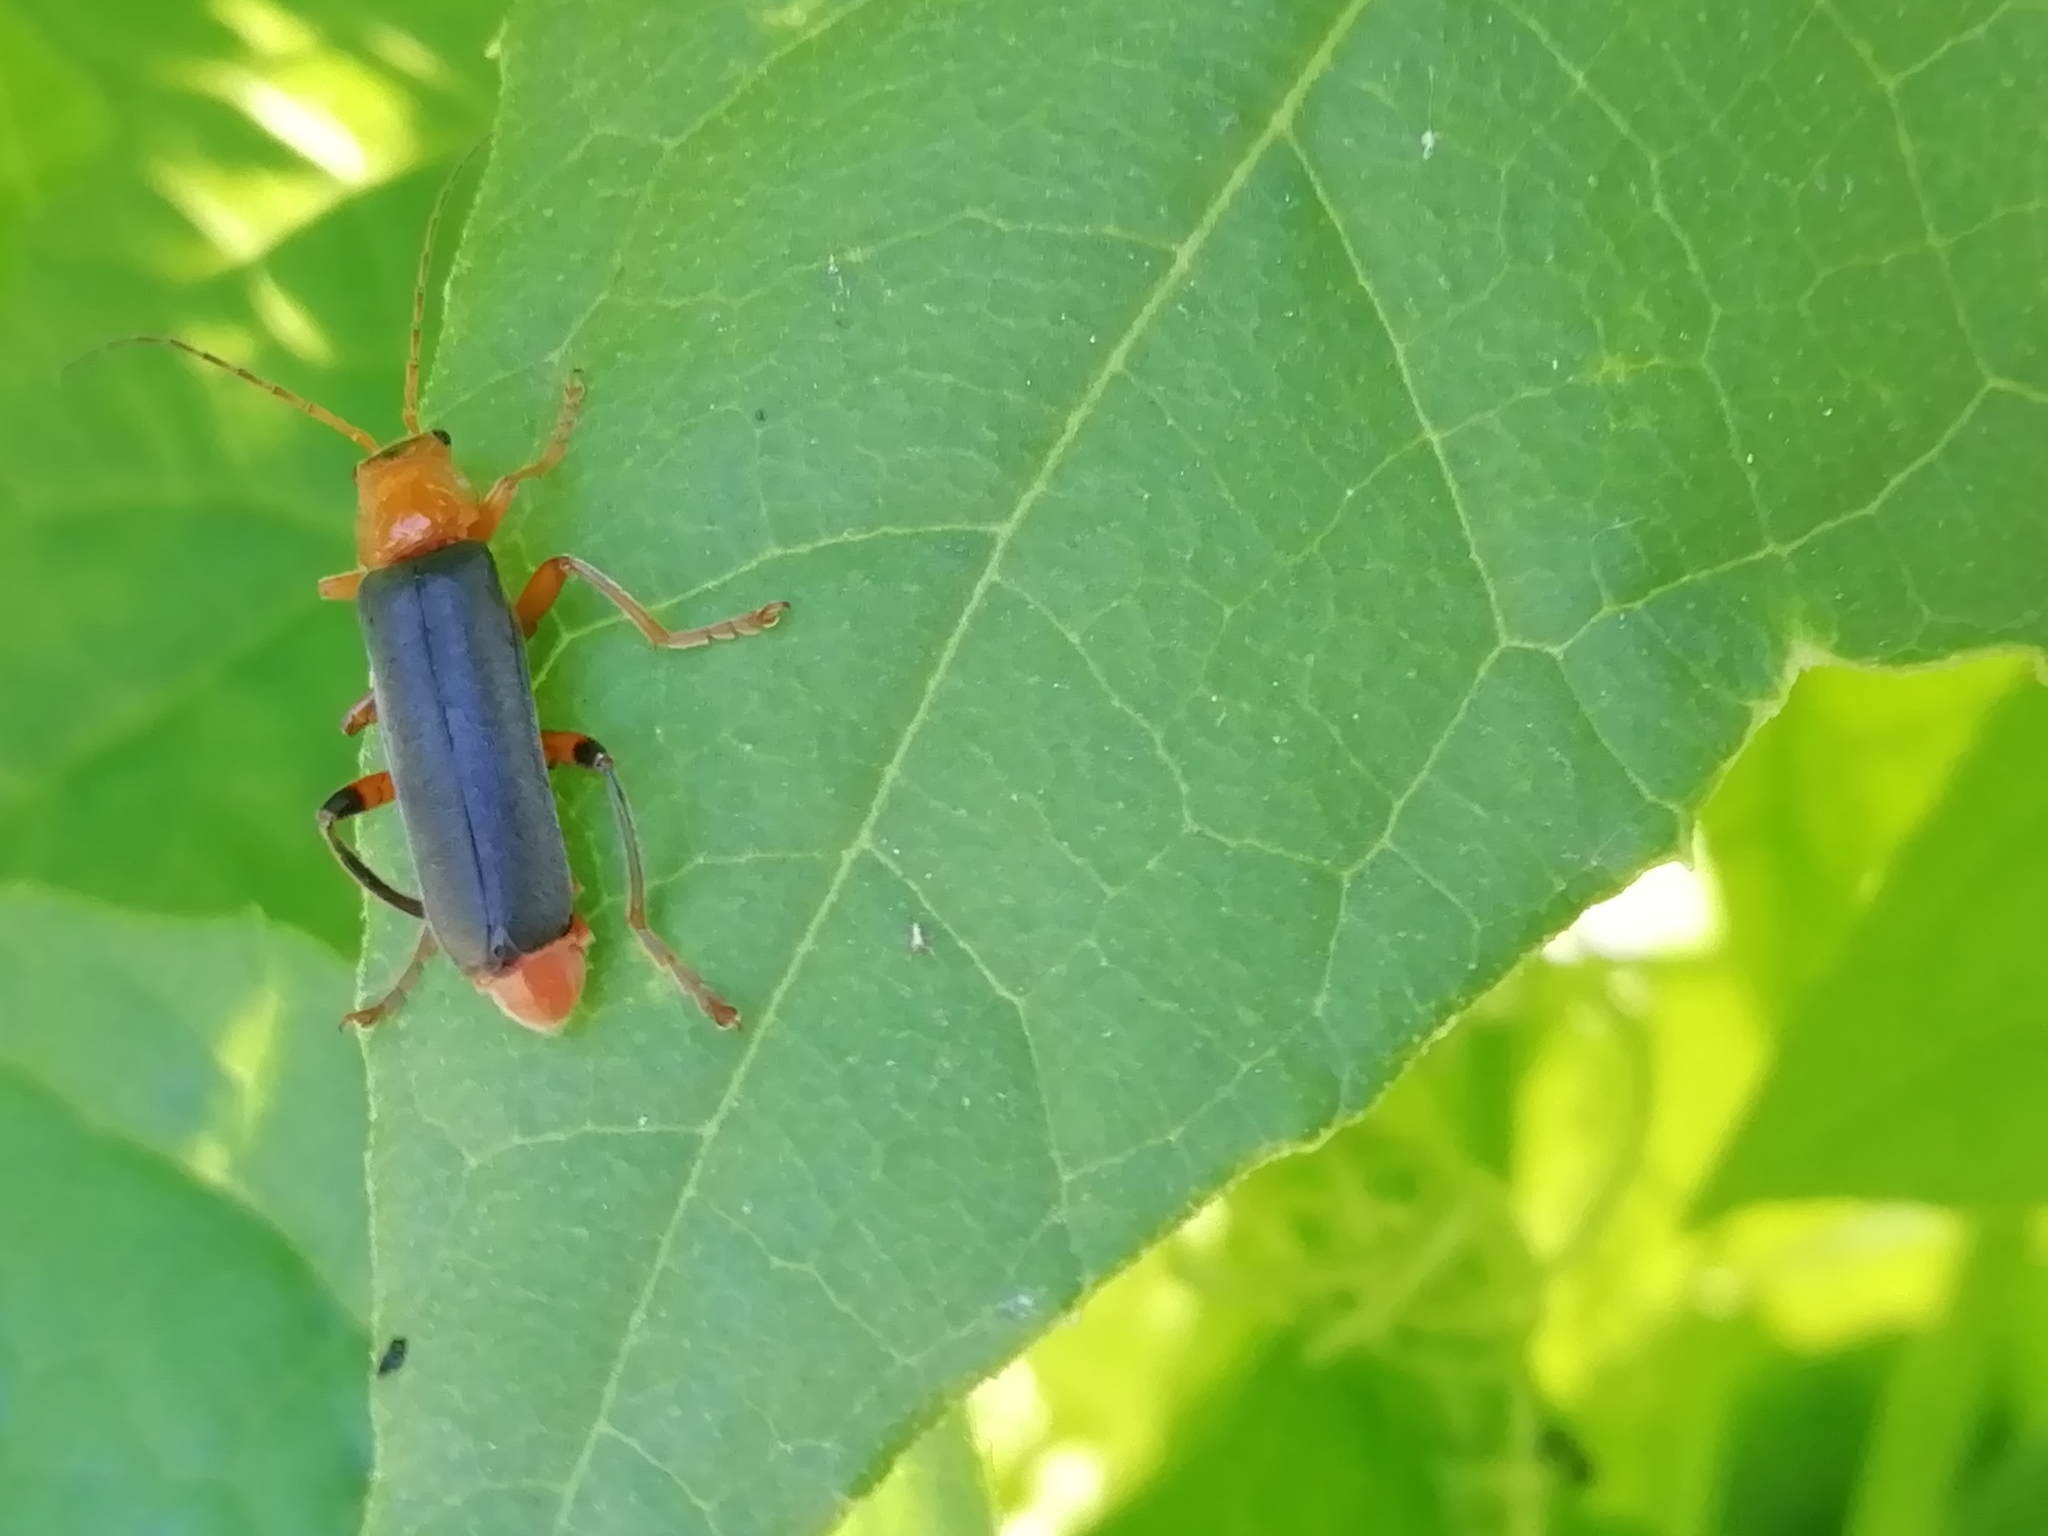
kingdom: Animalia
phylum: Arthropoda
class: Insecta
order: Coleoptera
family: Cantharidae
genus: Cantharis
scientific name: Cantharis livida
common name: Livid soldier beetle
